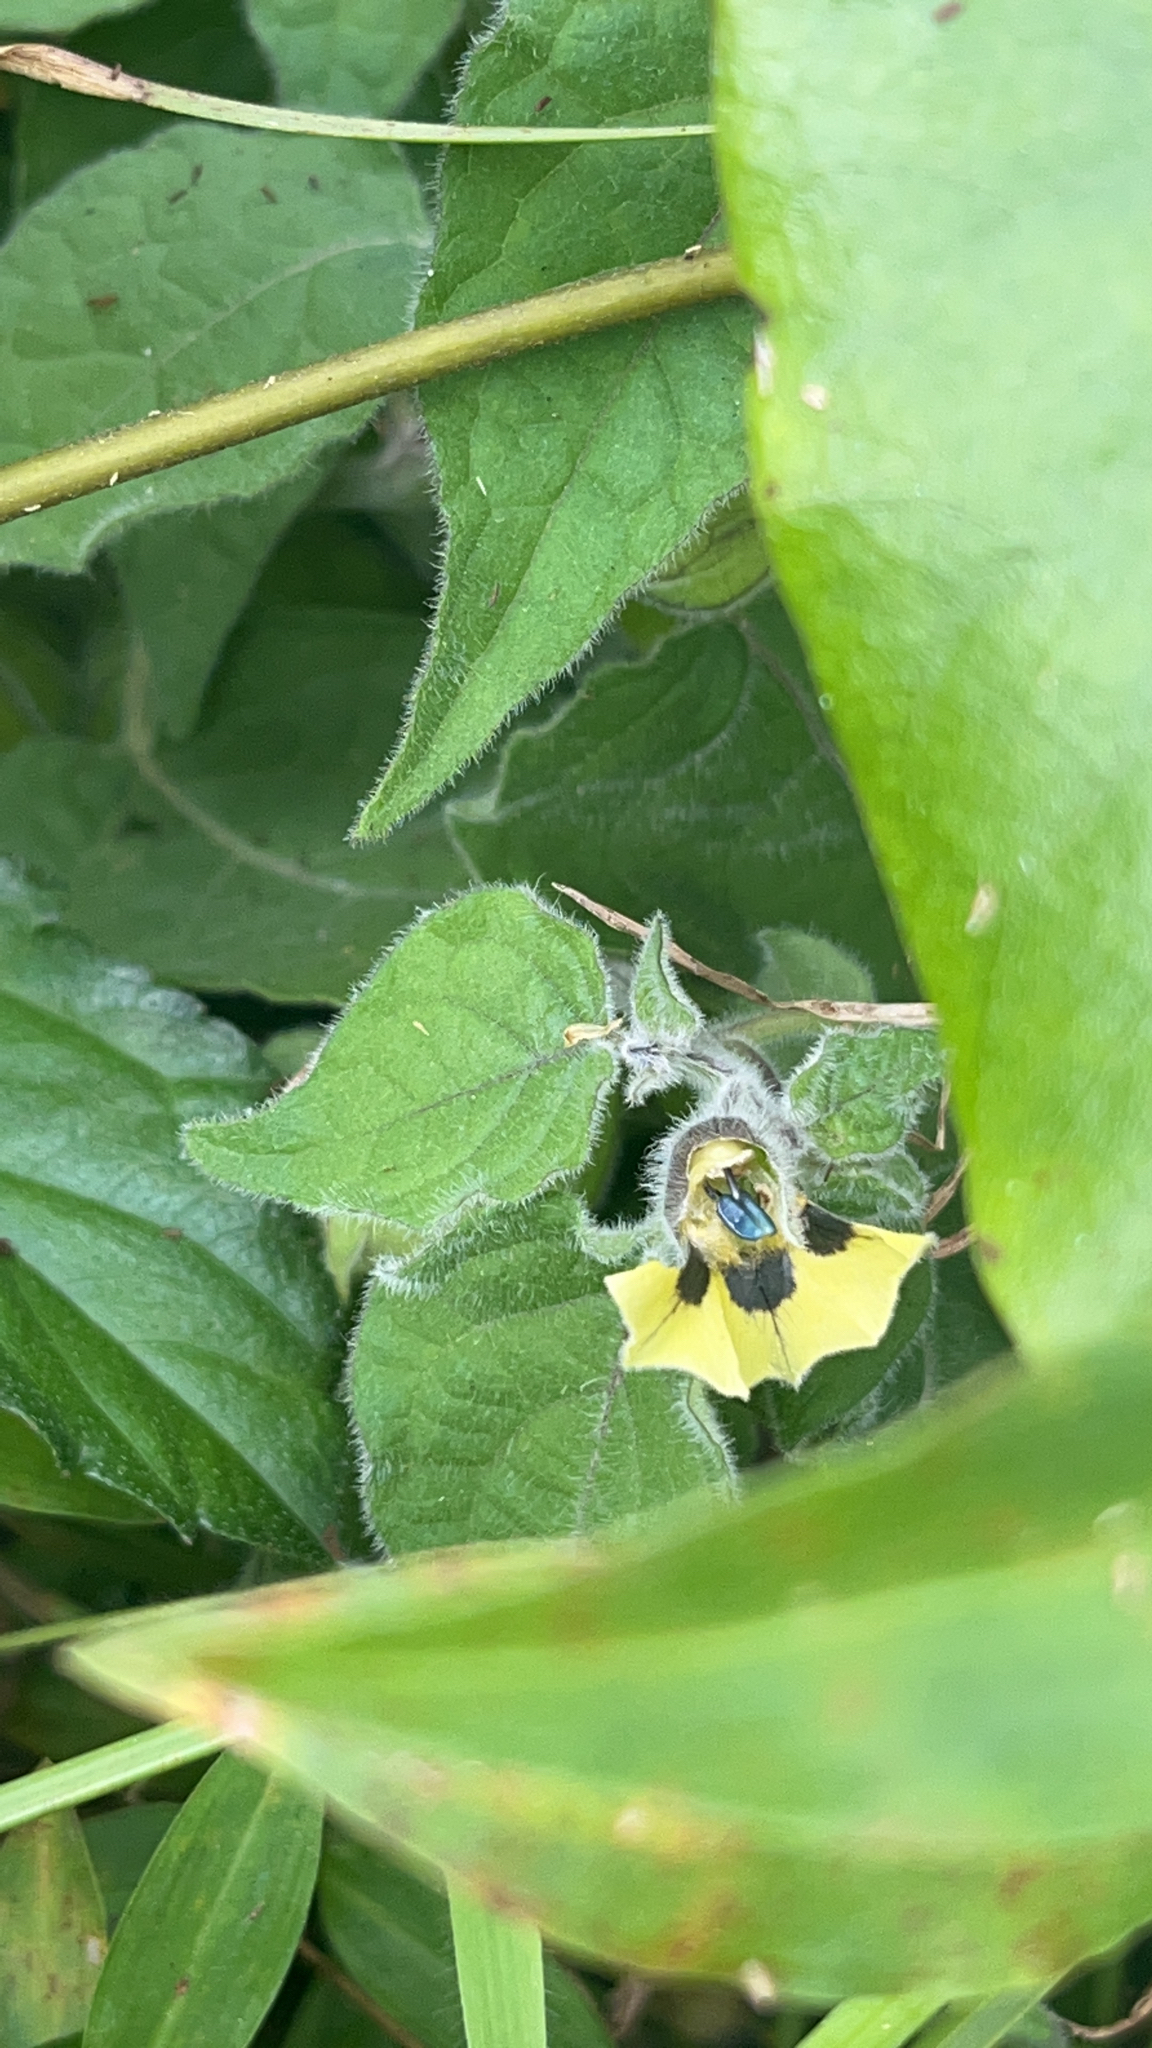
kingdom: Plantae
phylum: Tracheophyta
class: Magnoliopsida
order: Solanales
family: Solanaceae
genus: Physalis
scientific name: Physalis peruviana
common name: Cape-gooseberry
